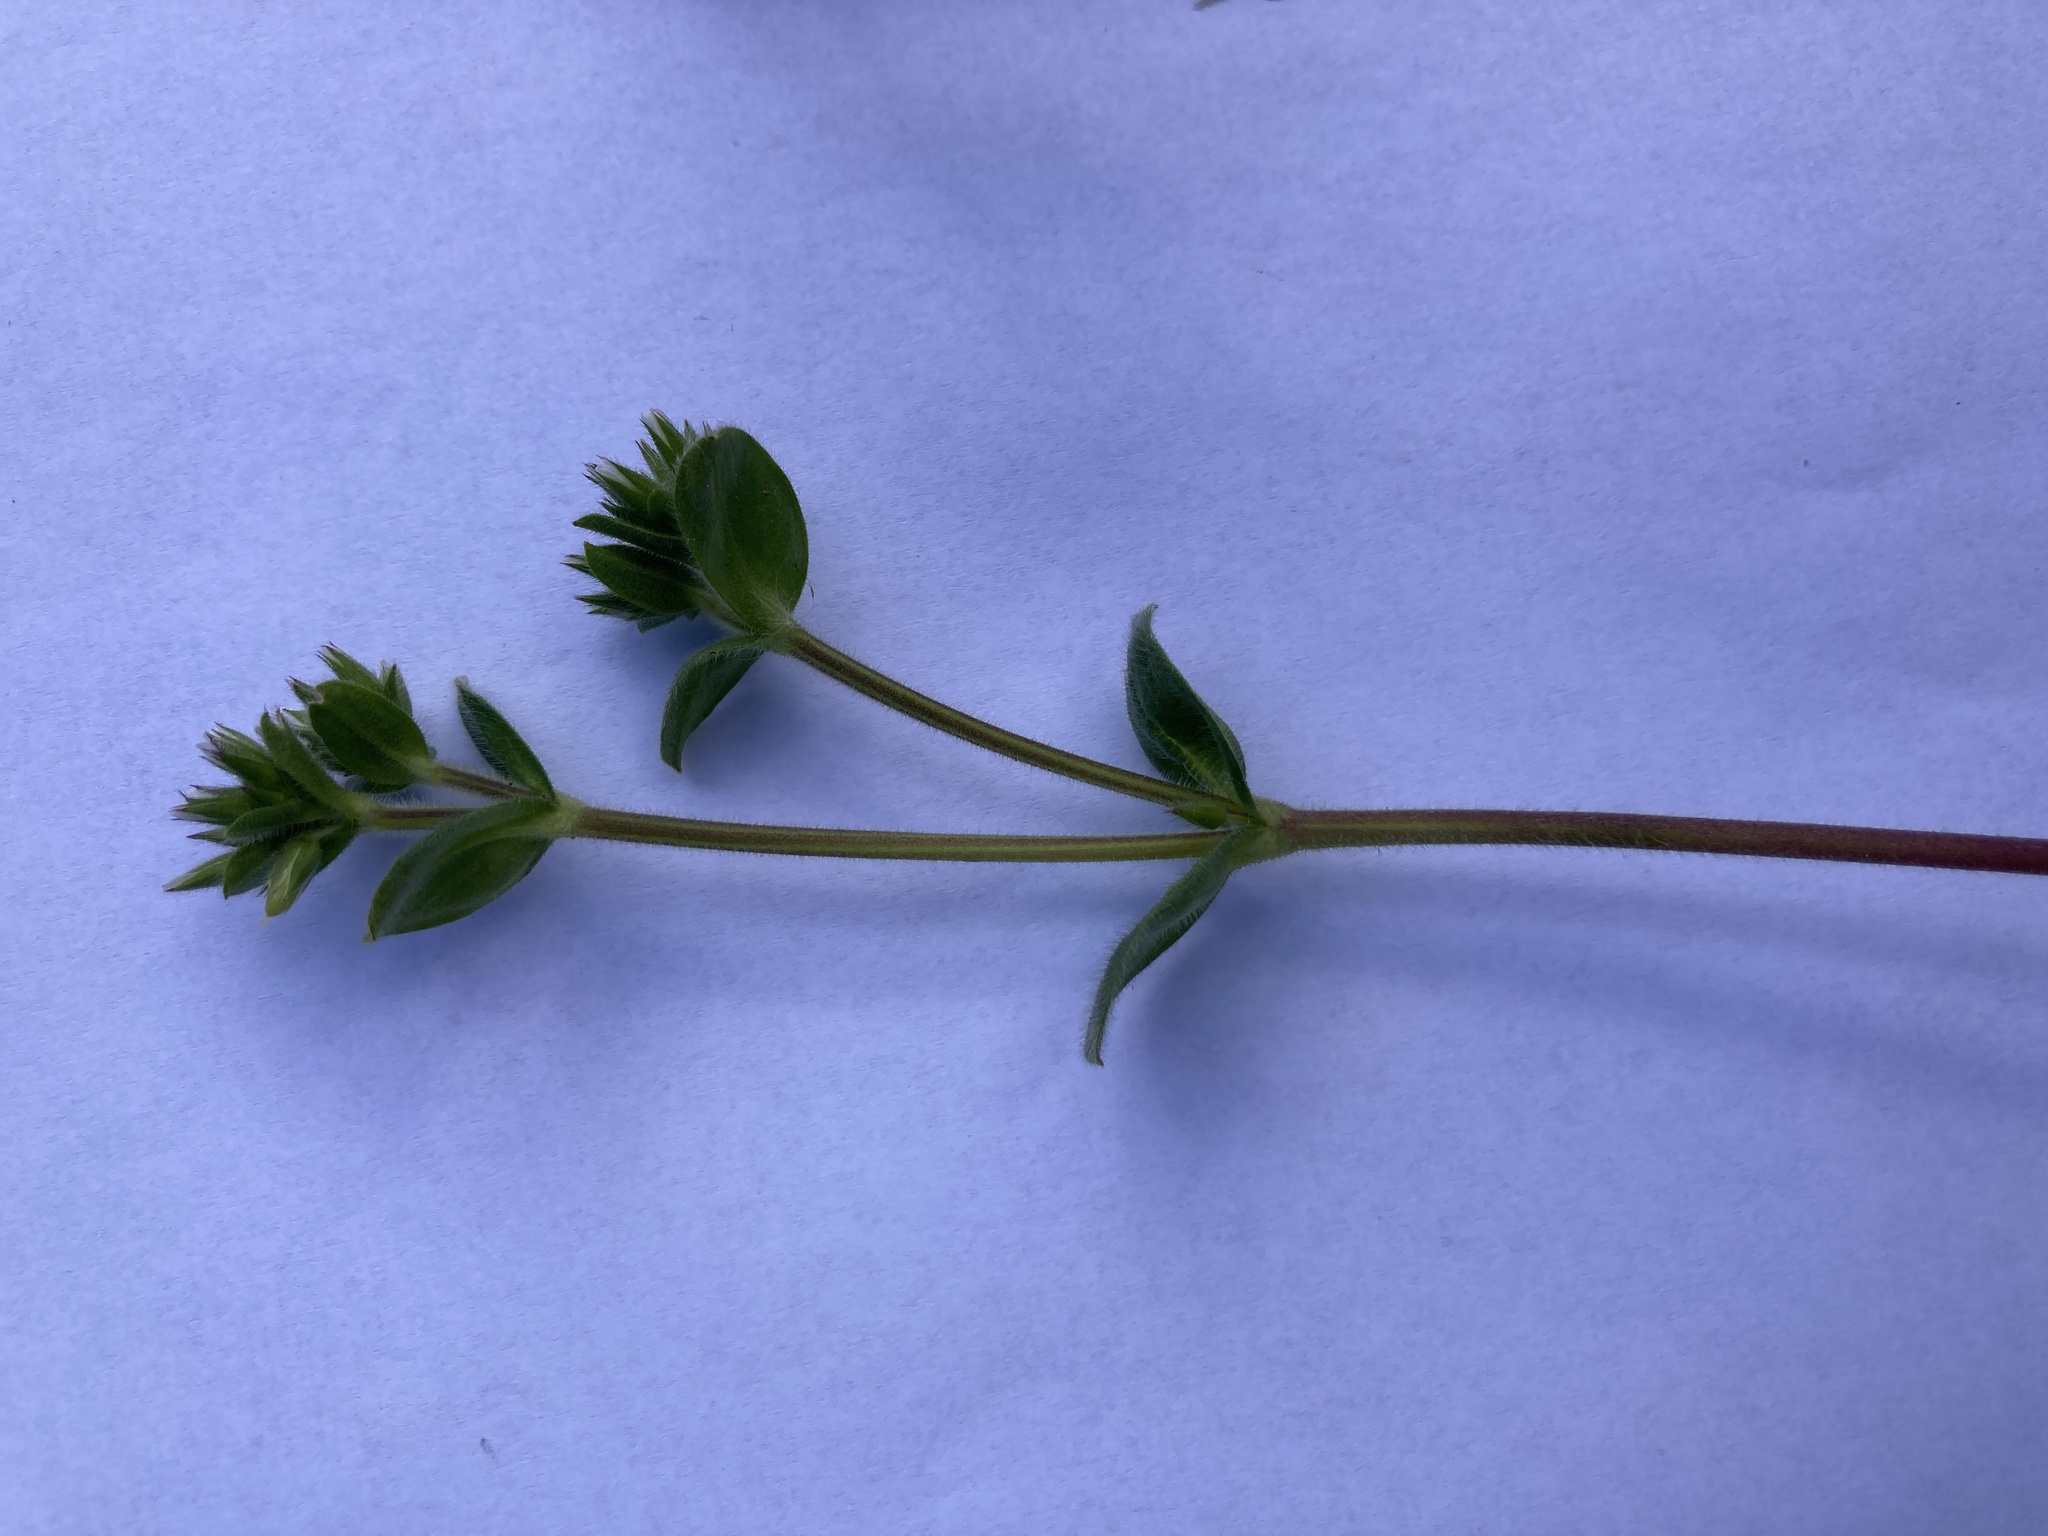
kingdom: Plantae
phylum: Tracheophyta
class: Magnoliopsida
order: Caryophyllales
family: Caryophyllaceae
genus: Cerastium
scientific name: Cerastium glomeratum
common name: Sticky chickweed
